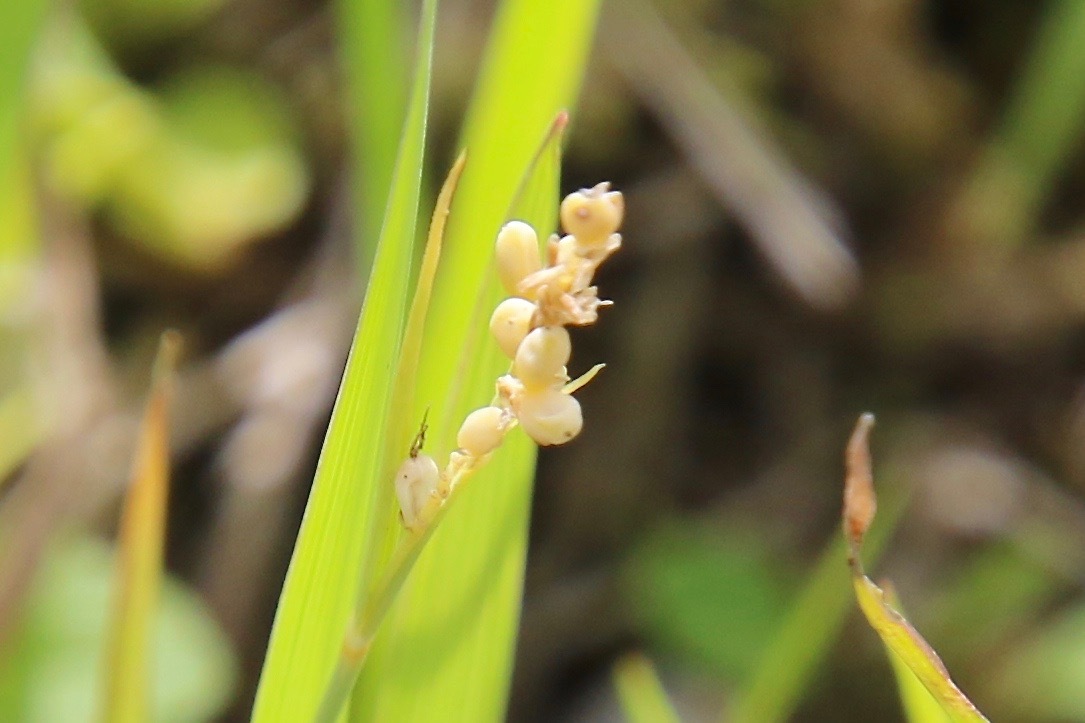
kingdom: Plantae
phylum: Tracheophyta
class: Liliopsida
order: Poales
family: Cyperaceae
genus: Carex
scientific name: Carex aurea
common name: Golden sedge
